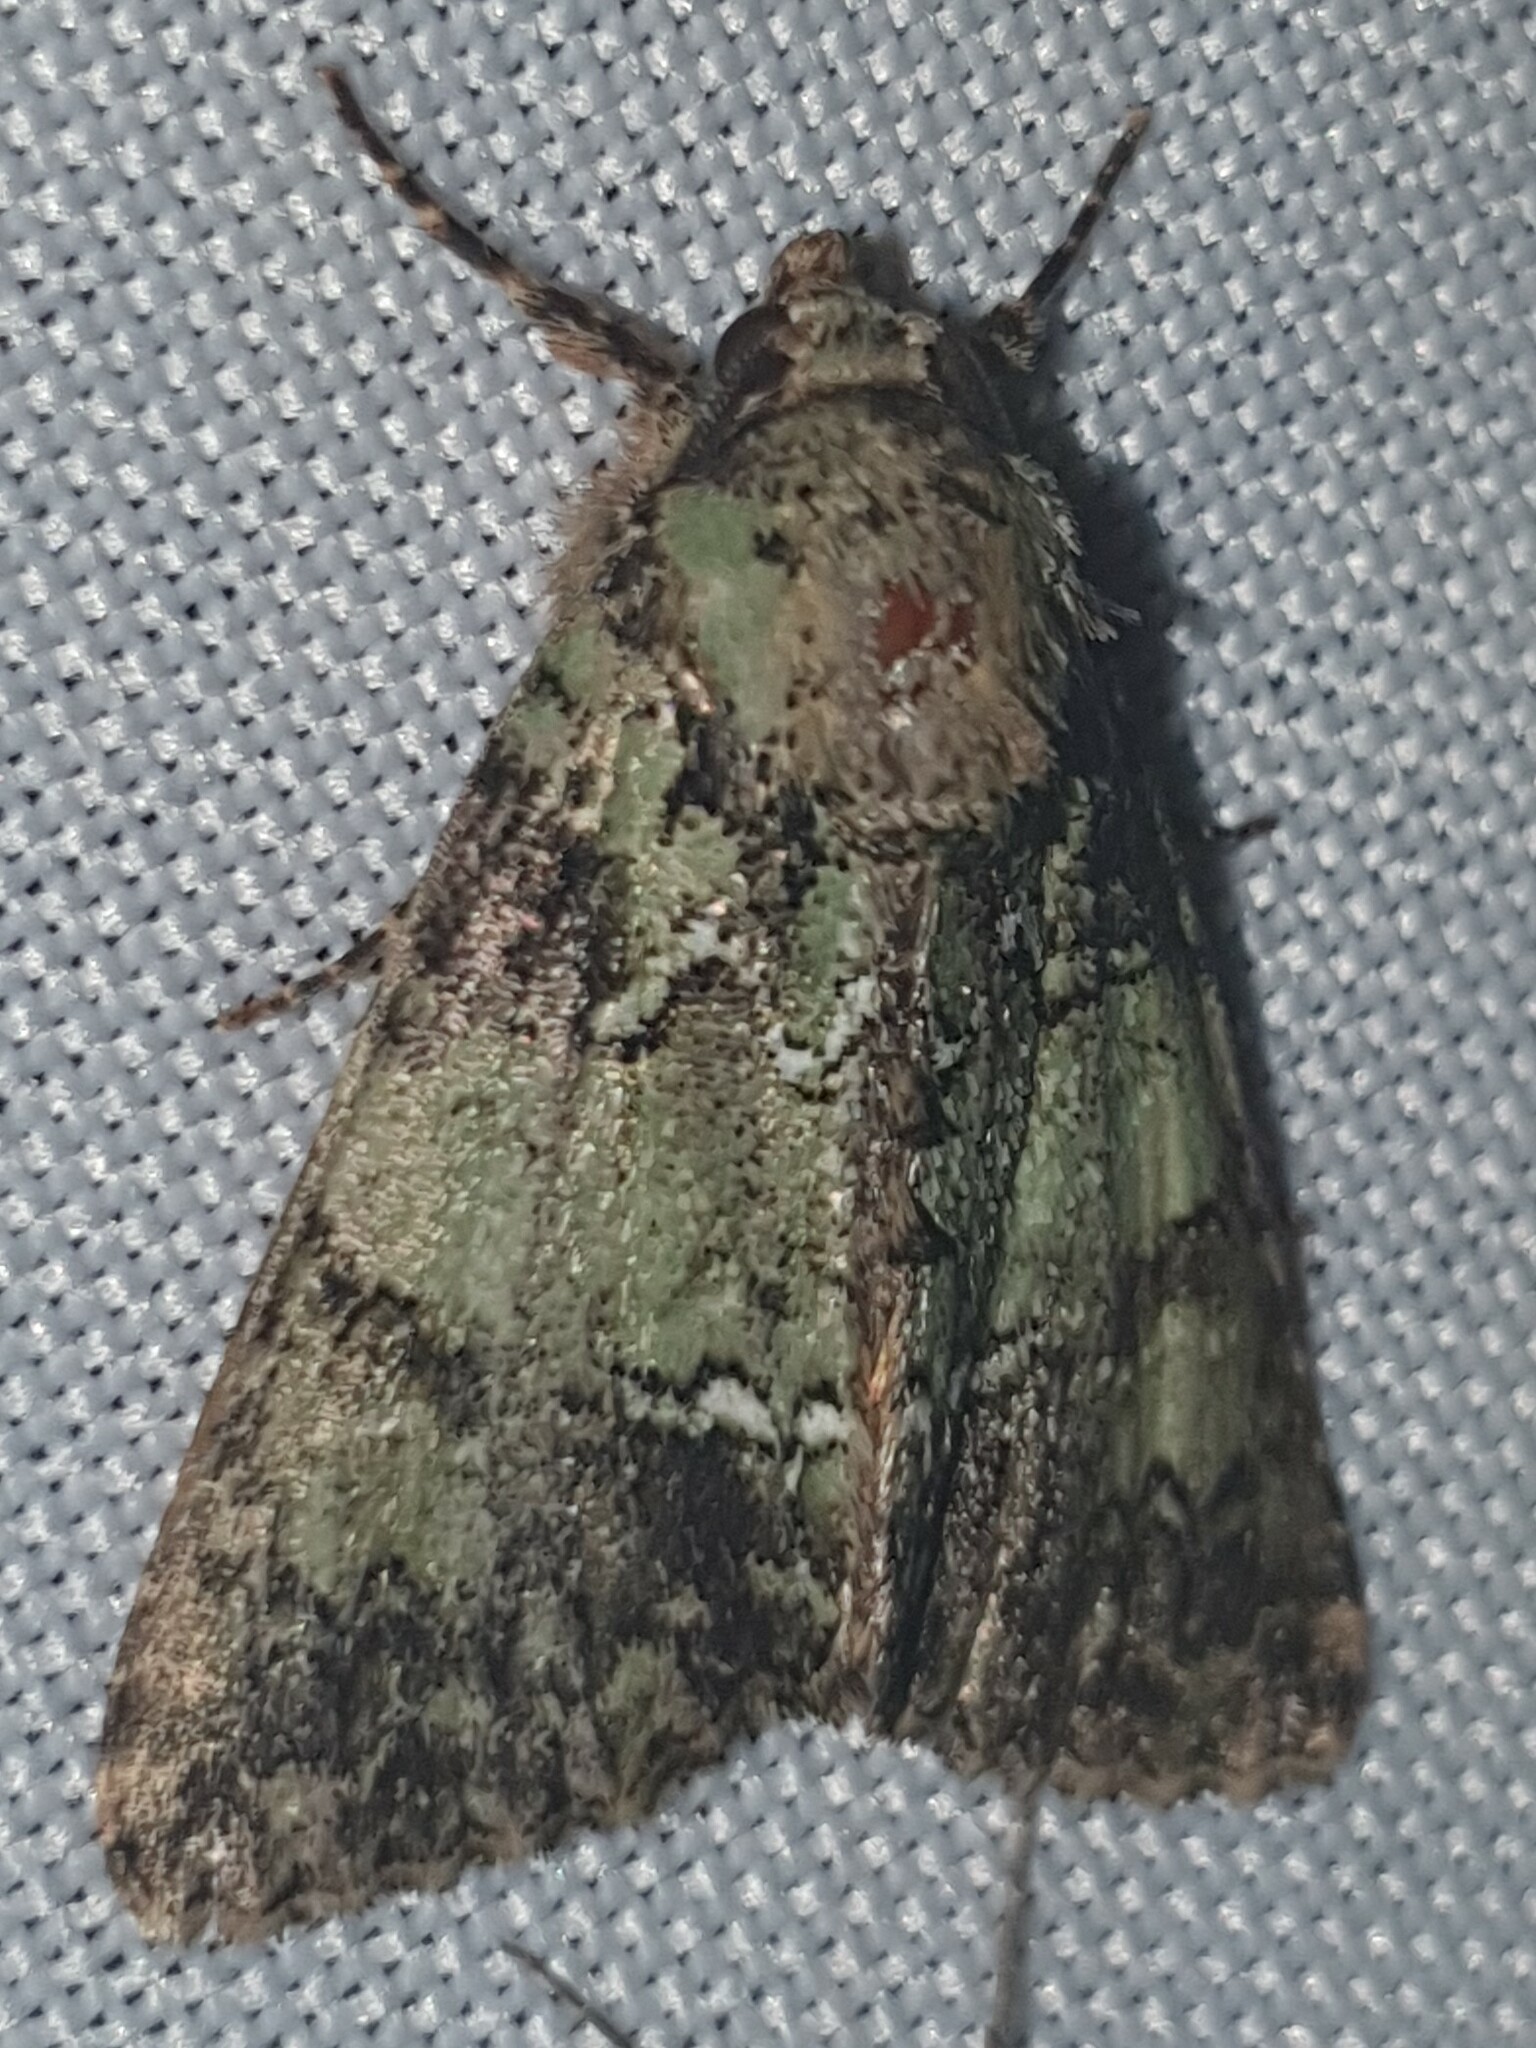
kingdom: Animalia
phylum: Arthropoda
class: Insecta
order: Lepidoptera
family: Noctuidae
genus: Polyphaenis
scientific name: Polyphaenis sericata
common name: Guernsey underwing
